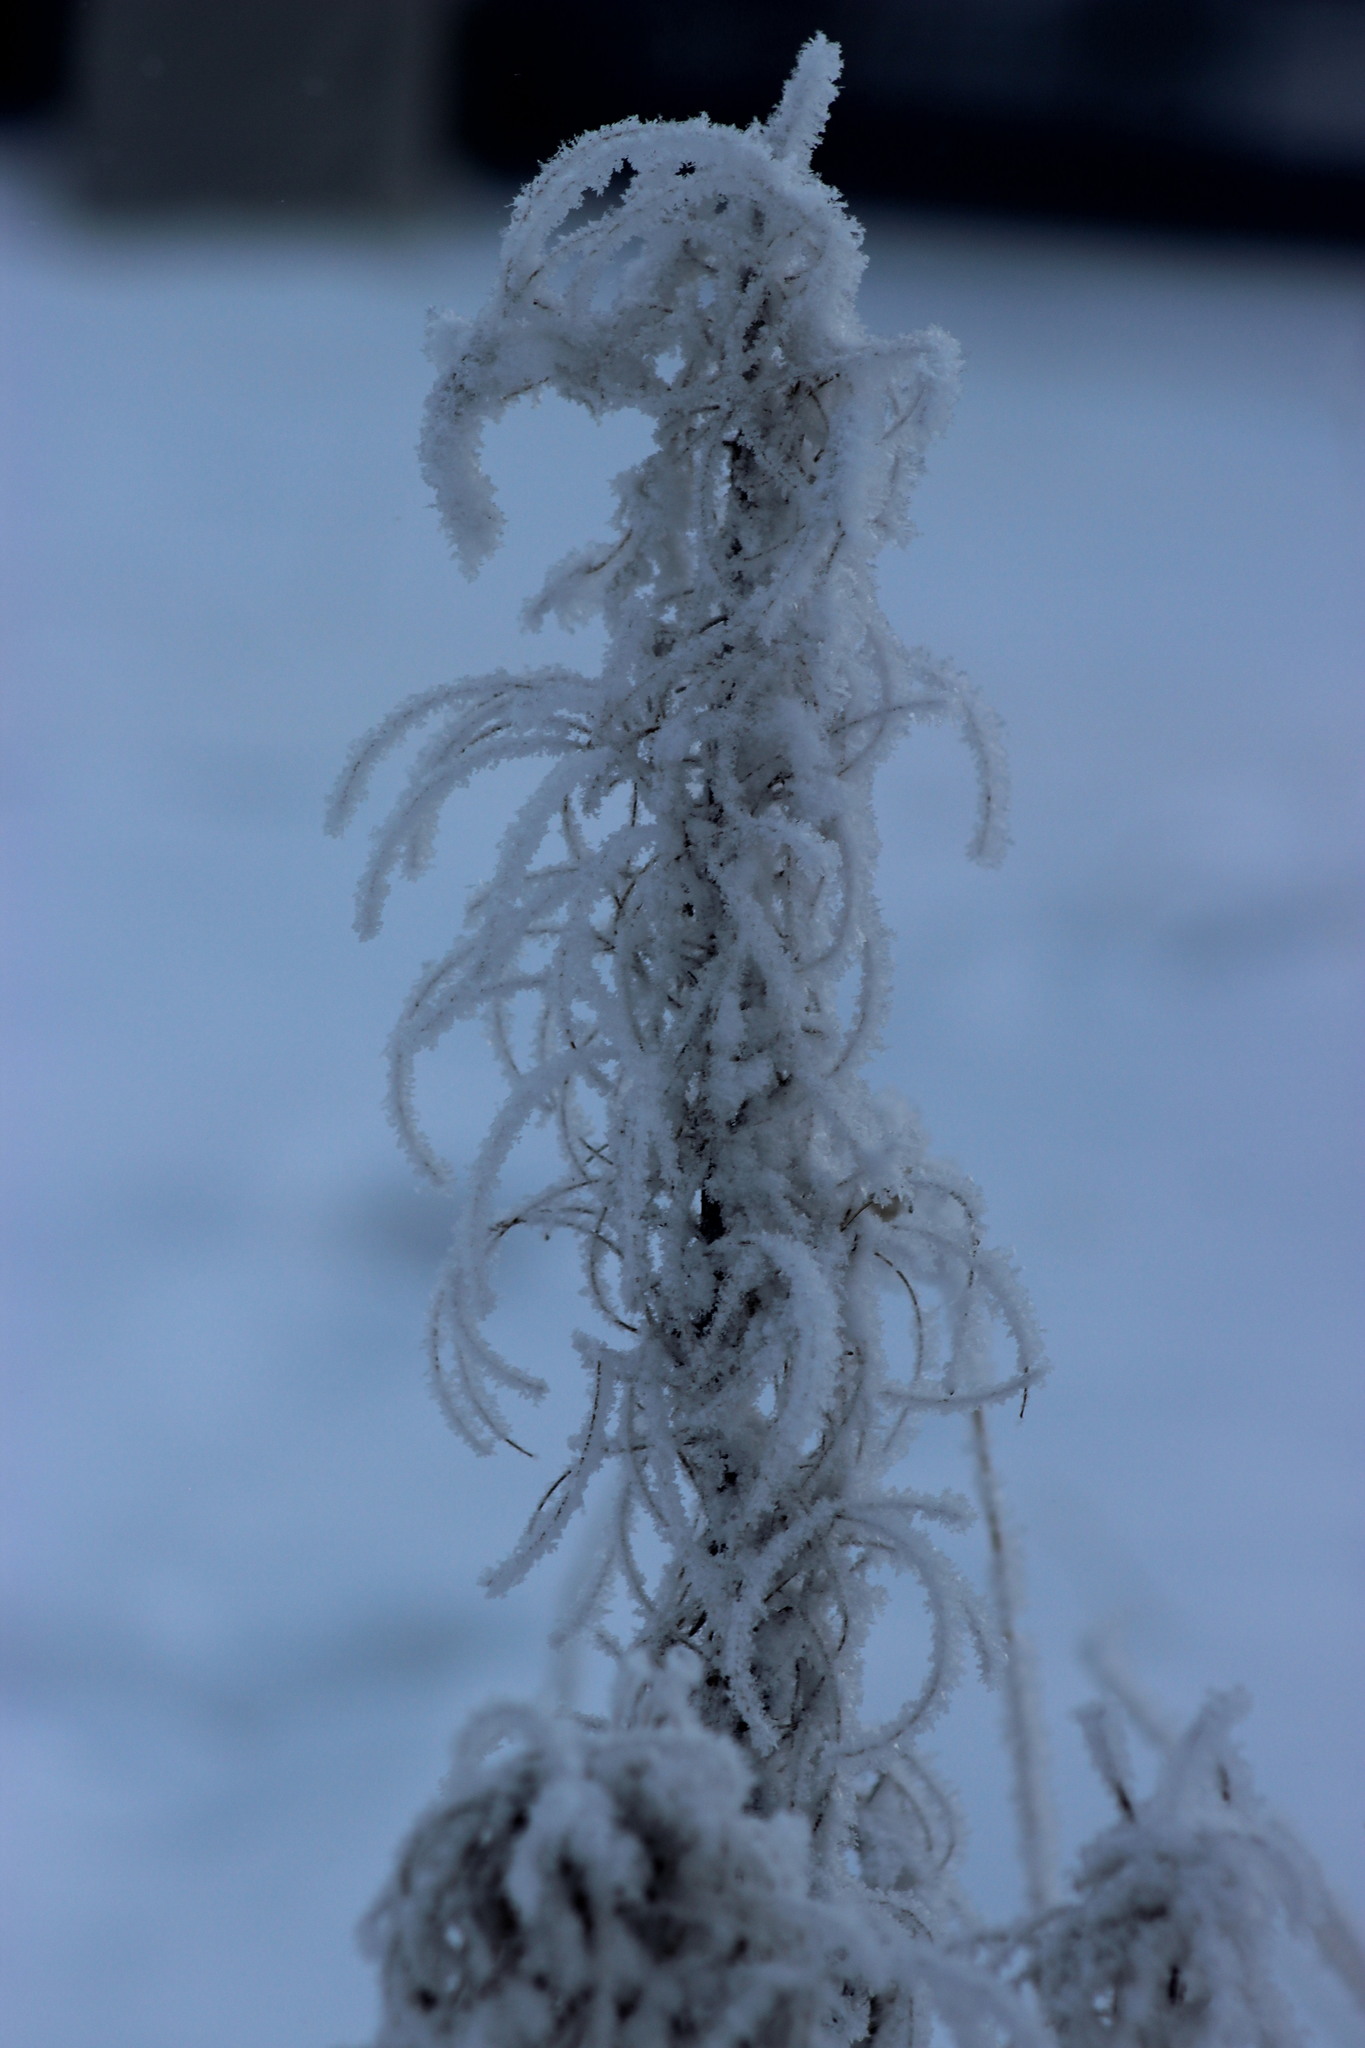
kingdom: Plantae
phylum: Tracheophyta
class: Magnoliopsida
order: Myrtales
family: Onagraceae
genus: Chamaenerion
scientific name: Chamaenerion angustifolium
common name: Fireweed
